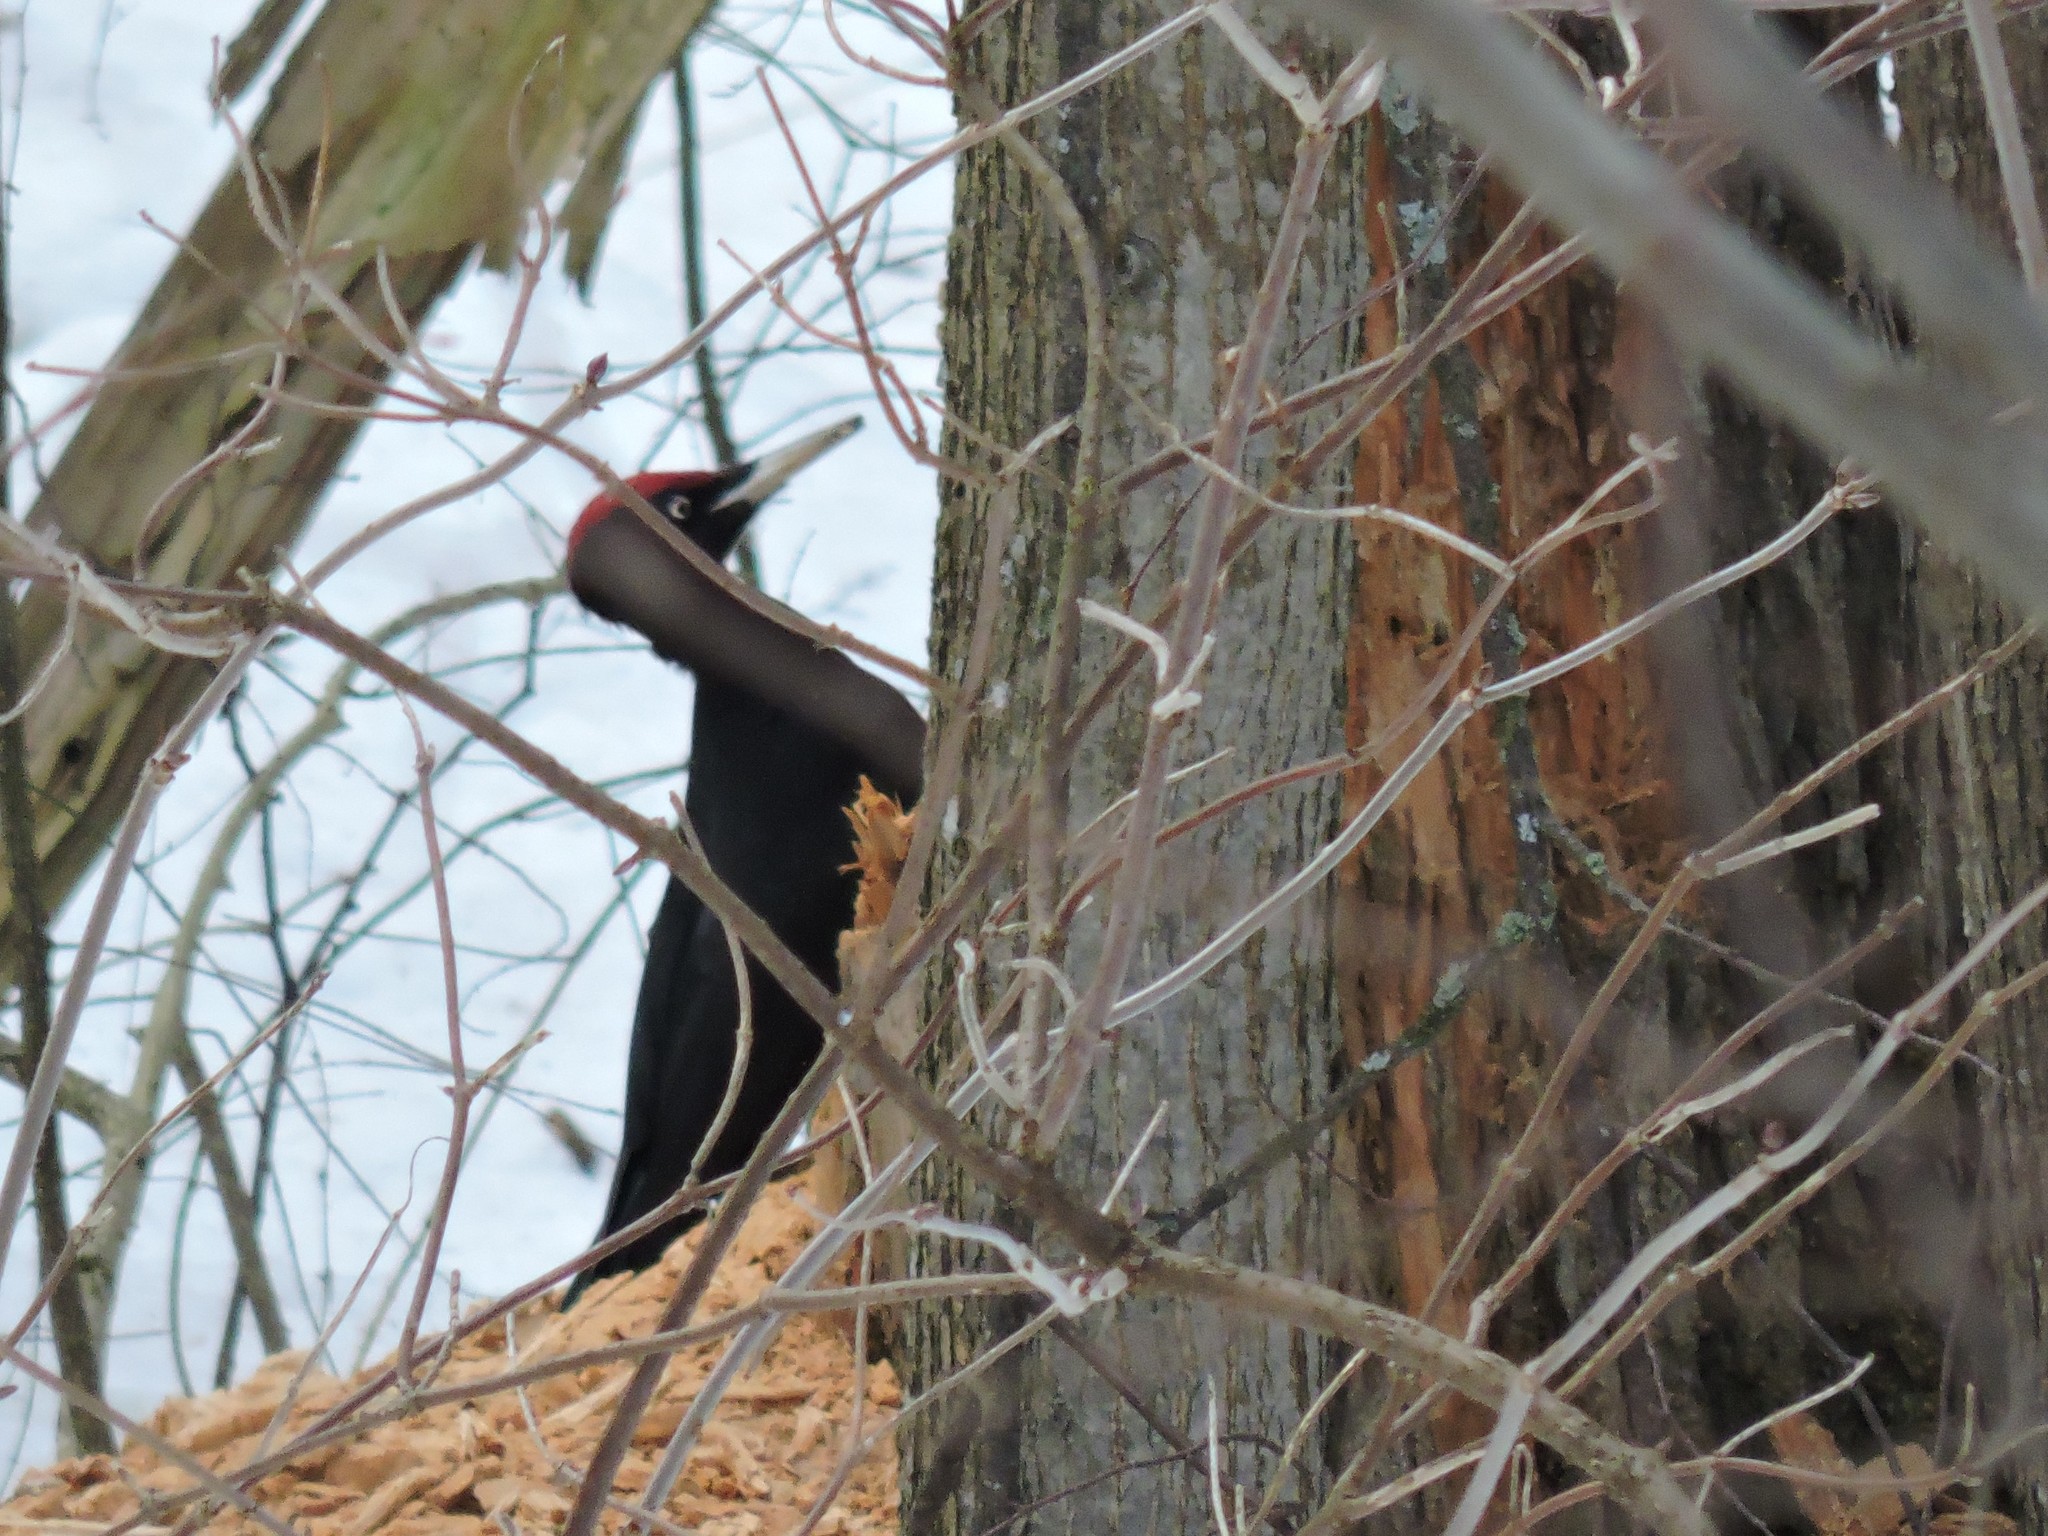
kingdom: Animalia
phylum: Chordata
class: Aves
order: Piciformes
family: Picidae
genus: Dryocopus
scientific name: Dryocopus martius
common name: Black woodpecker
